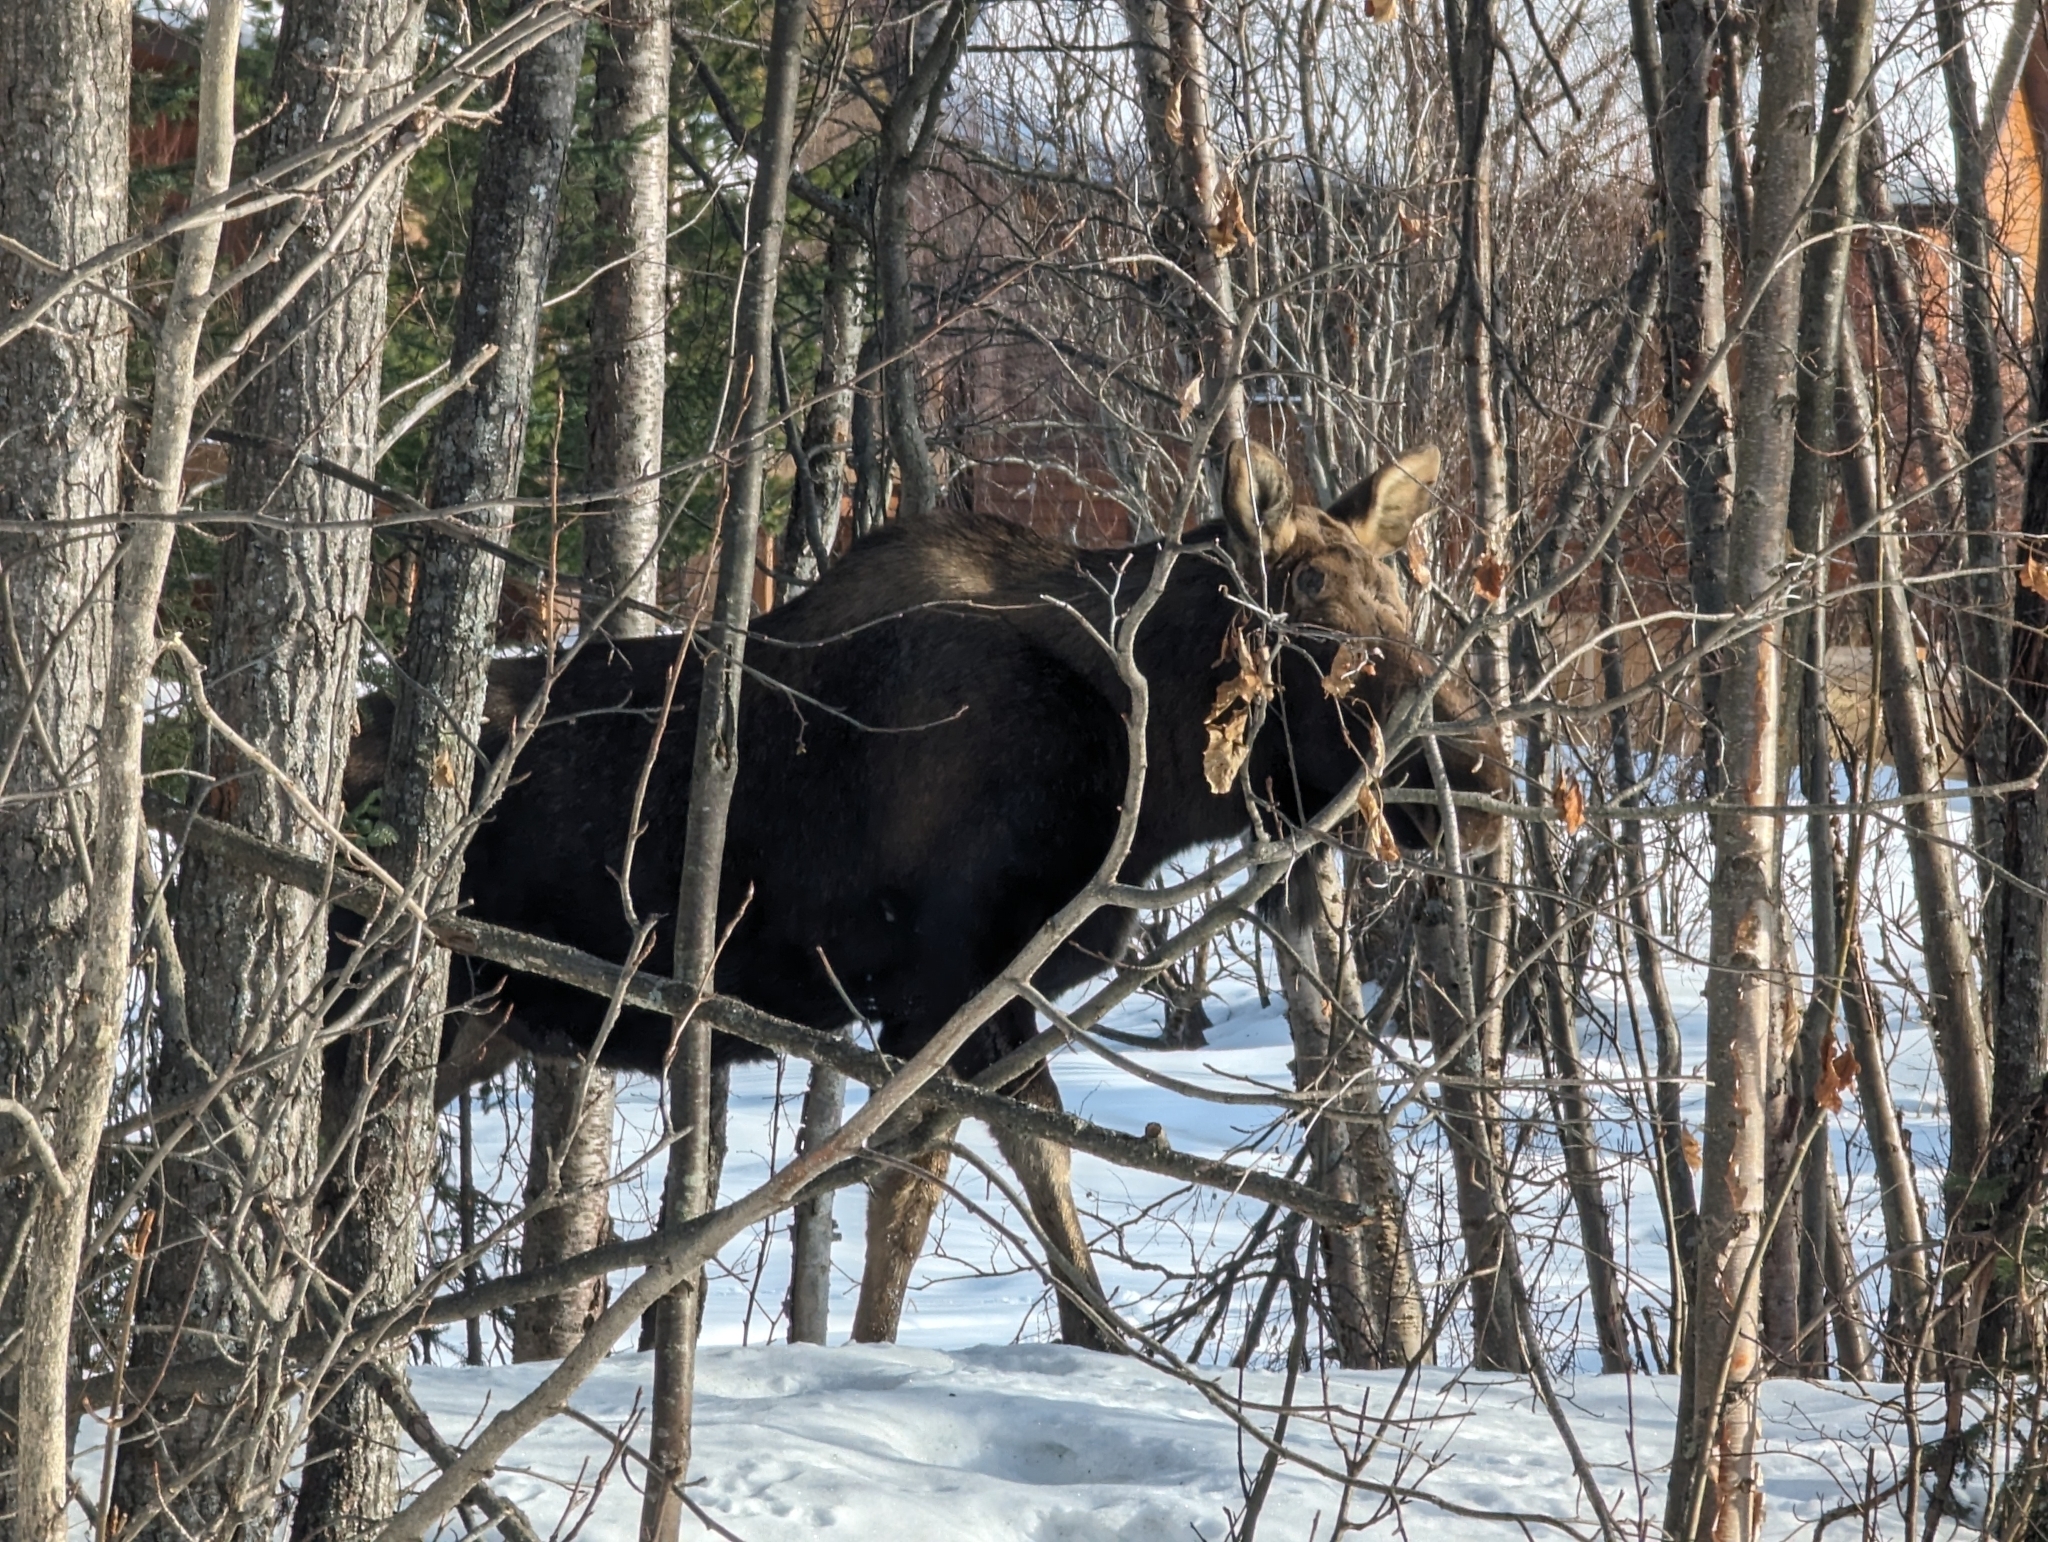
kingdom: Animalia
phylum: Chordata
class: Mammalia
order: Artiodactyla
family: Cervidae
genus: Alces
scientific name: Alces alces
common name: Moose
